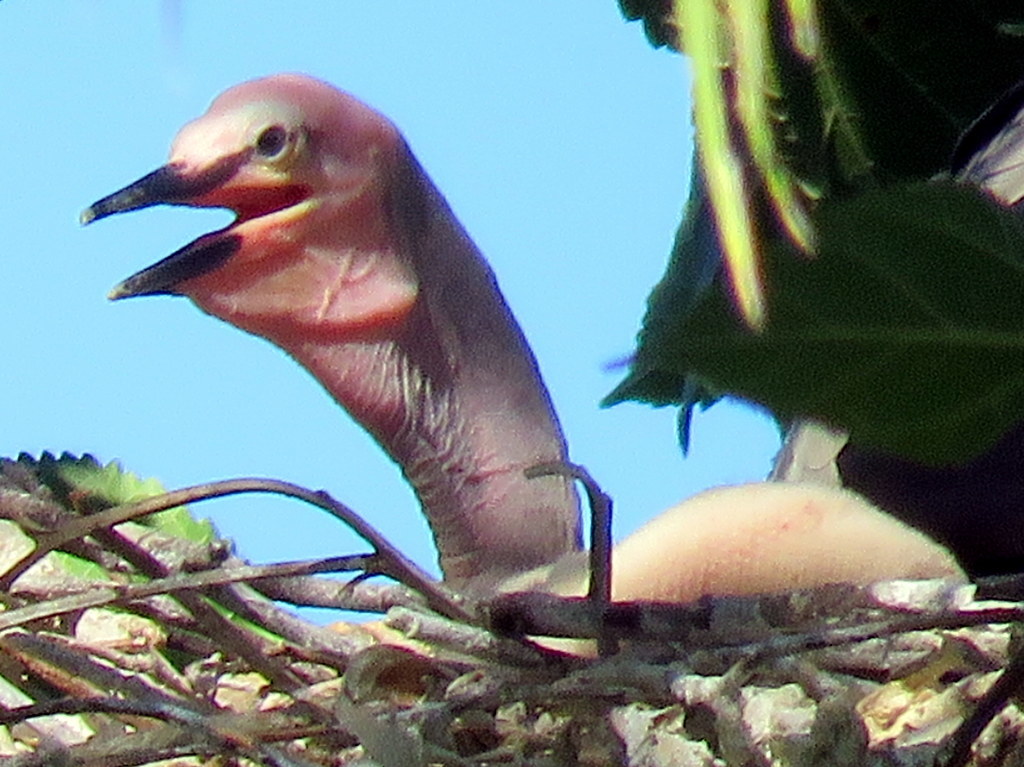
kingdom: Animalia
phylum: Chordata
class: Aves
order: Suliformes
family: Anhingidae
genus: Anhinga
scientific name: Anhinga anhinga
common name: Anhinga
